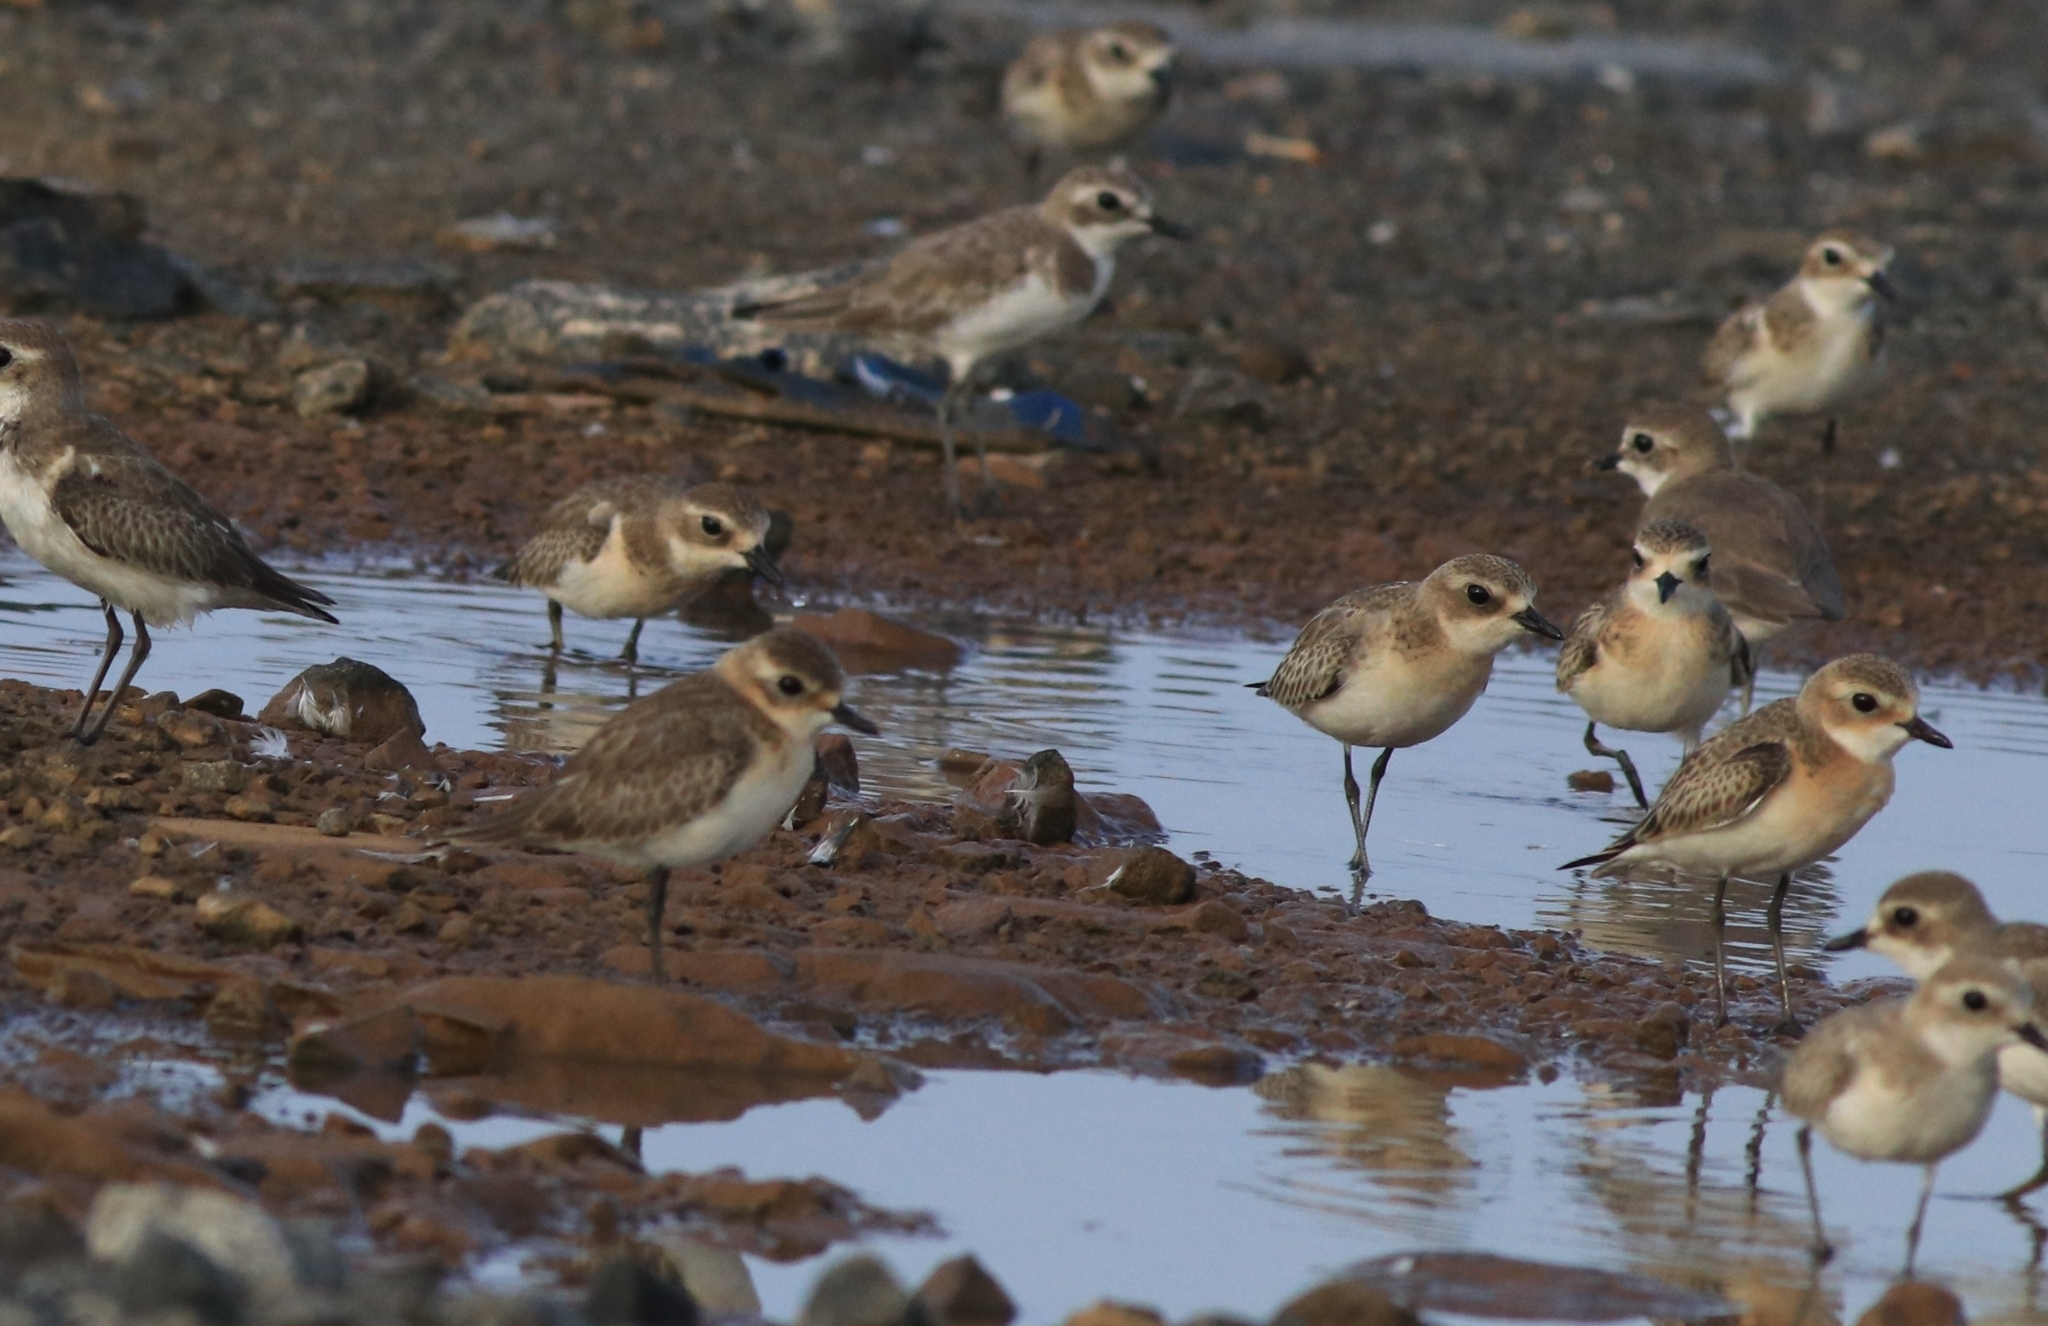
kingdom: Animalia
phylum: Chordata
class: Aves
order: Charadriiformes
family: Charadriidae
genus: Anarhynchus
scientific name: Anarhynchus
